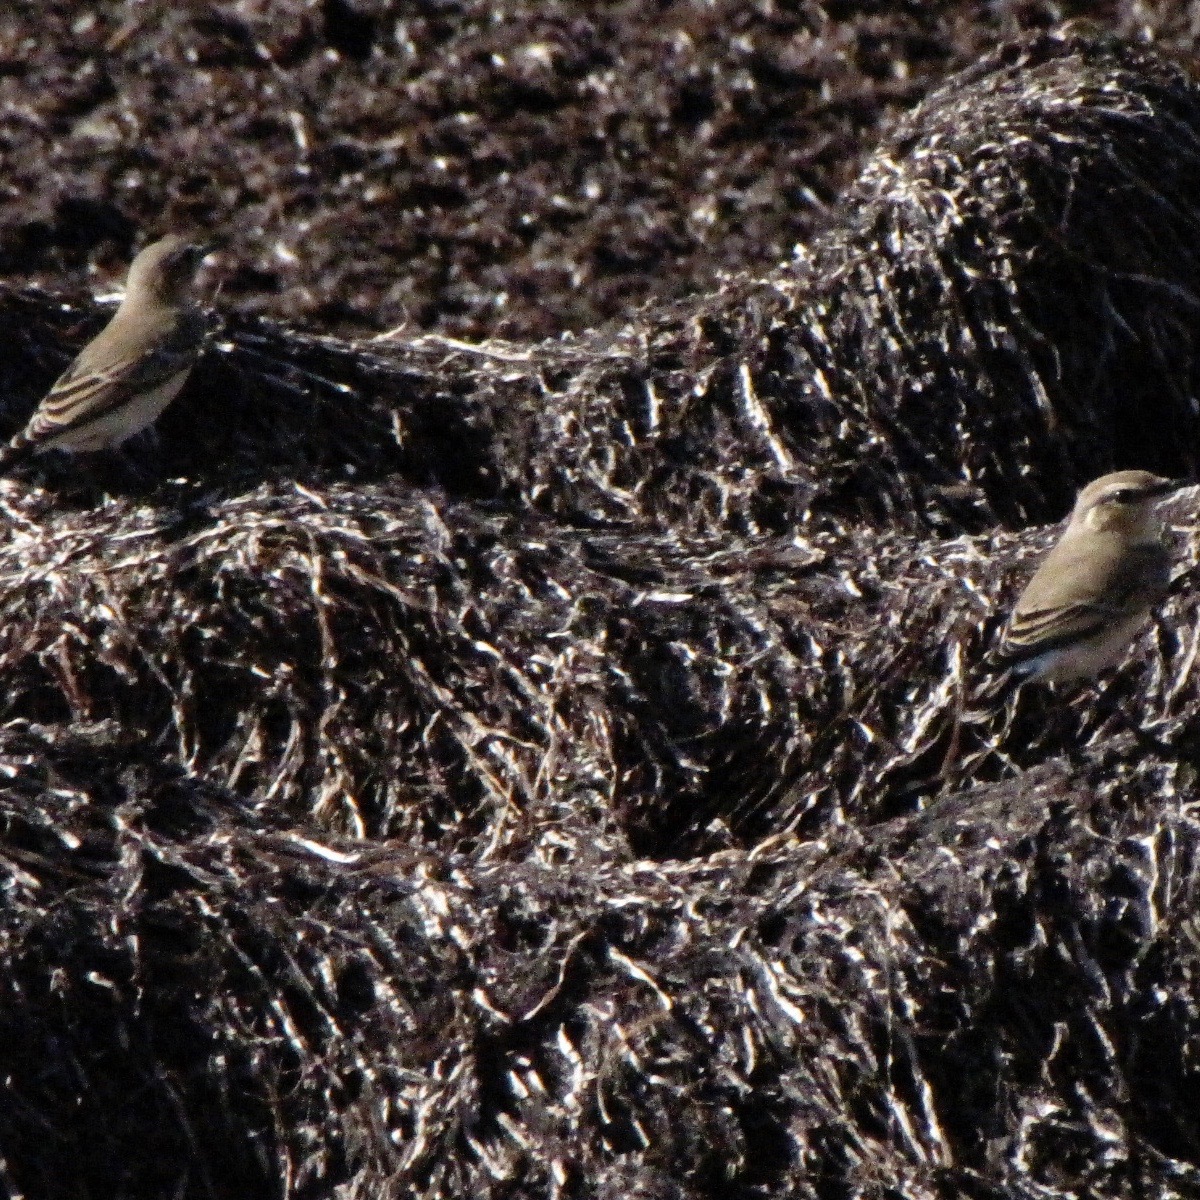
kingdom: Animalia
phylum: Chordata
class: Aves
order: Passeriformes
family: Muscicapidae
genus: Oenanthe
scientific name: Oenanthe oenanthe
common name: Northern wheatear
